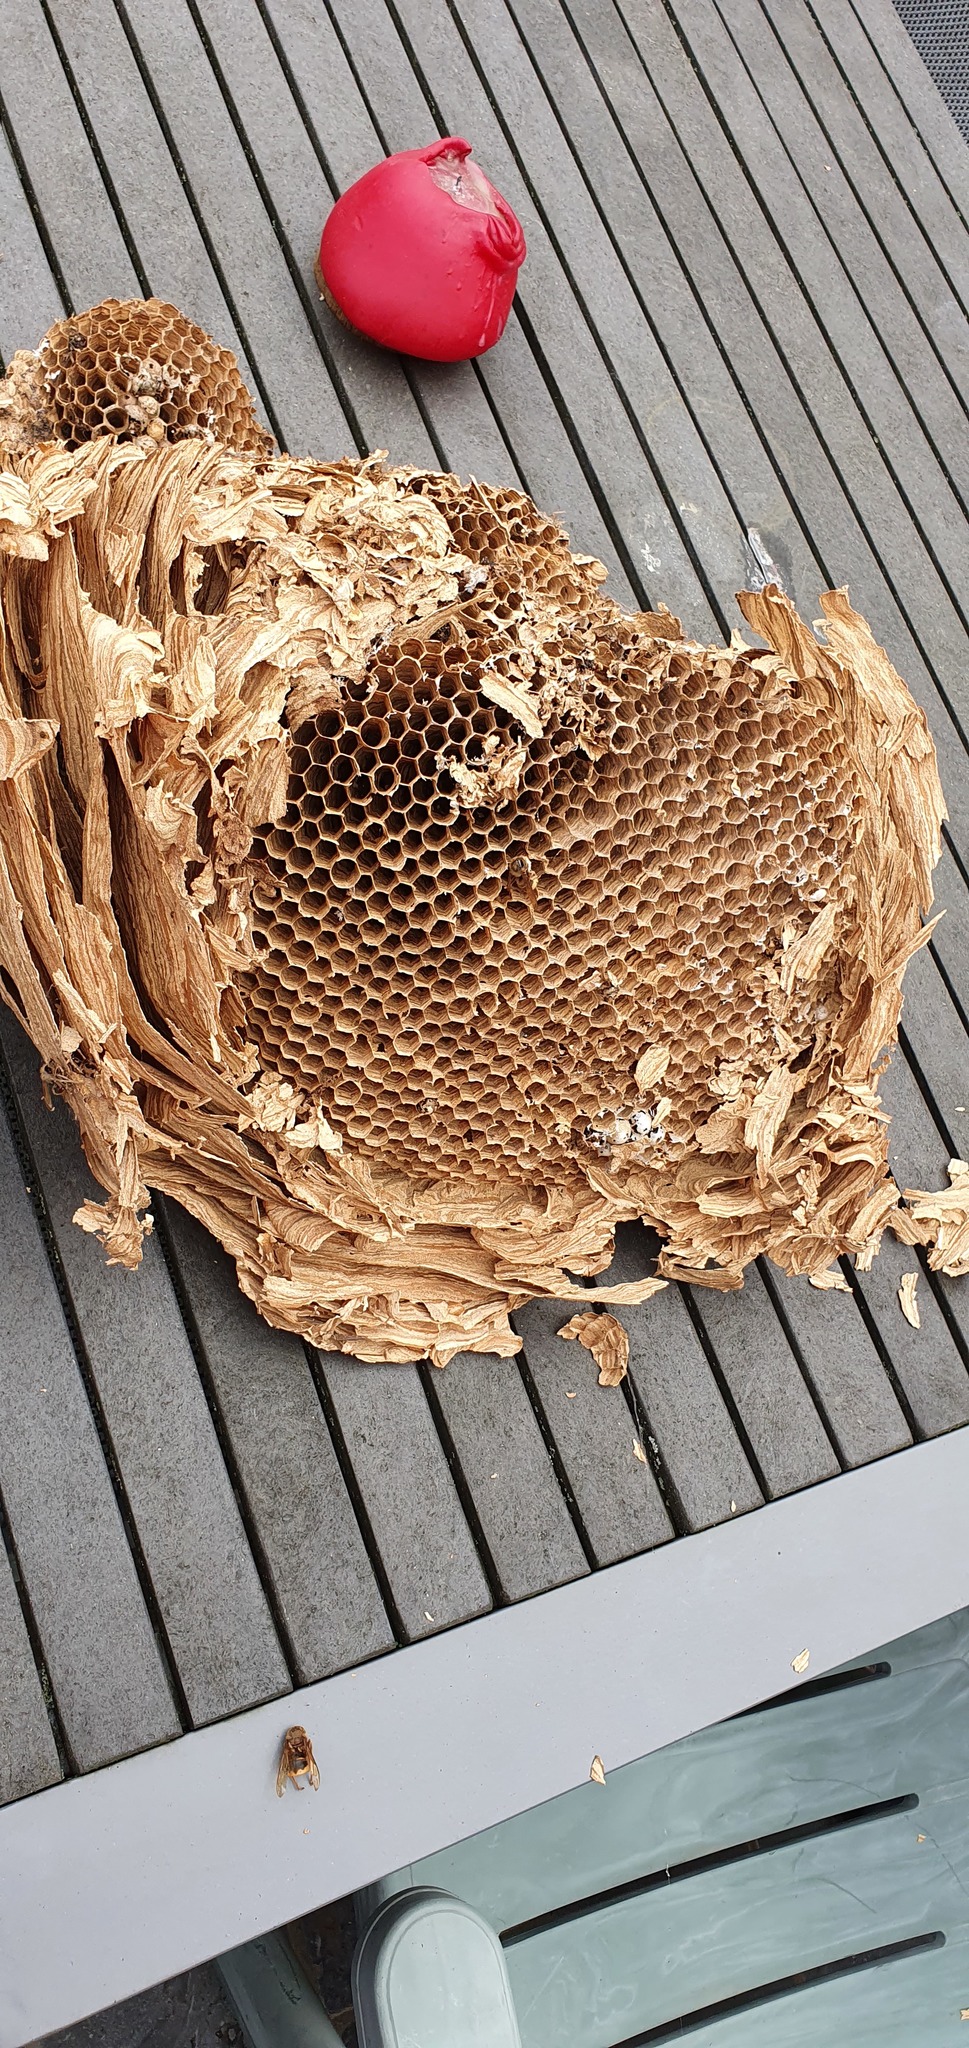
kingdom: Animalia
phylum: Arthropoda
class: Insecta
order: Hymenoptera
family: Vespidae
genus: Vespa
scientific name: Vespa crabro
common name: Hornet
